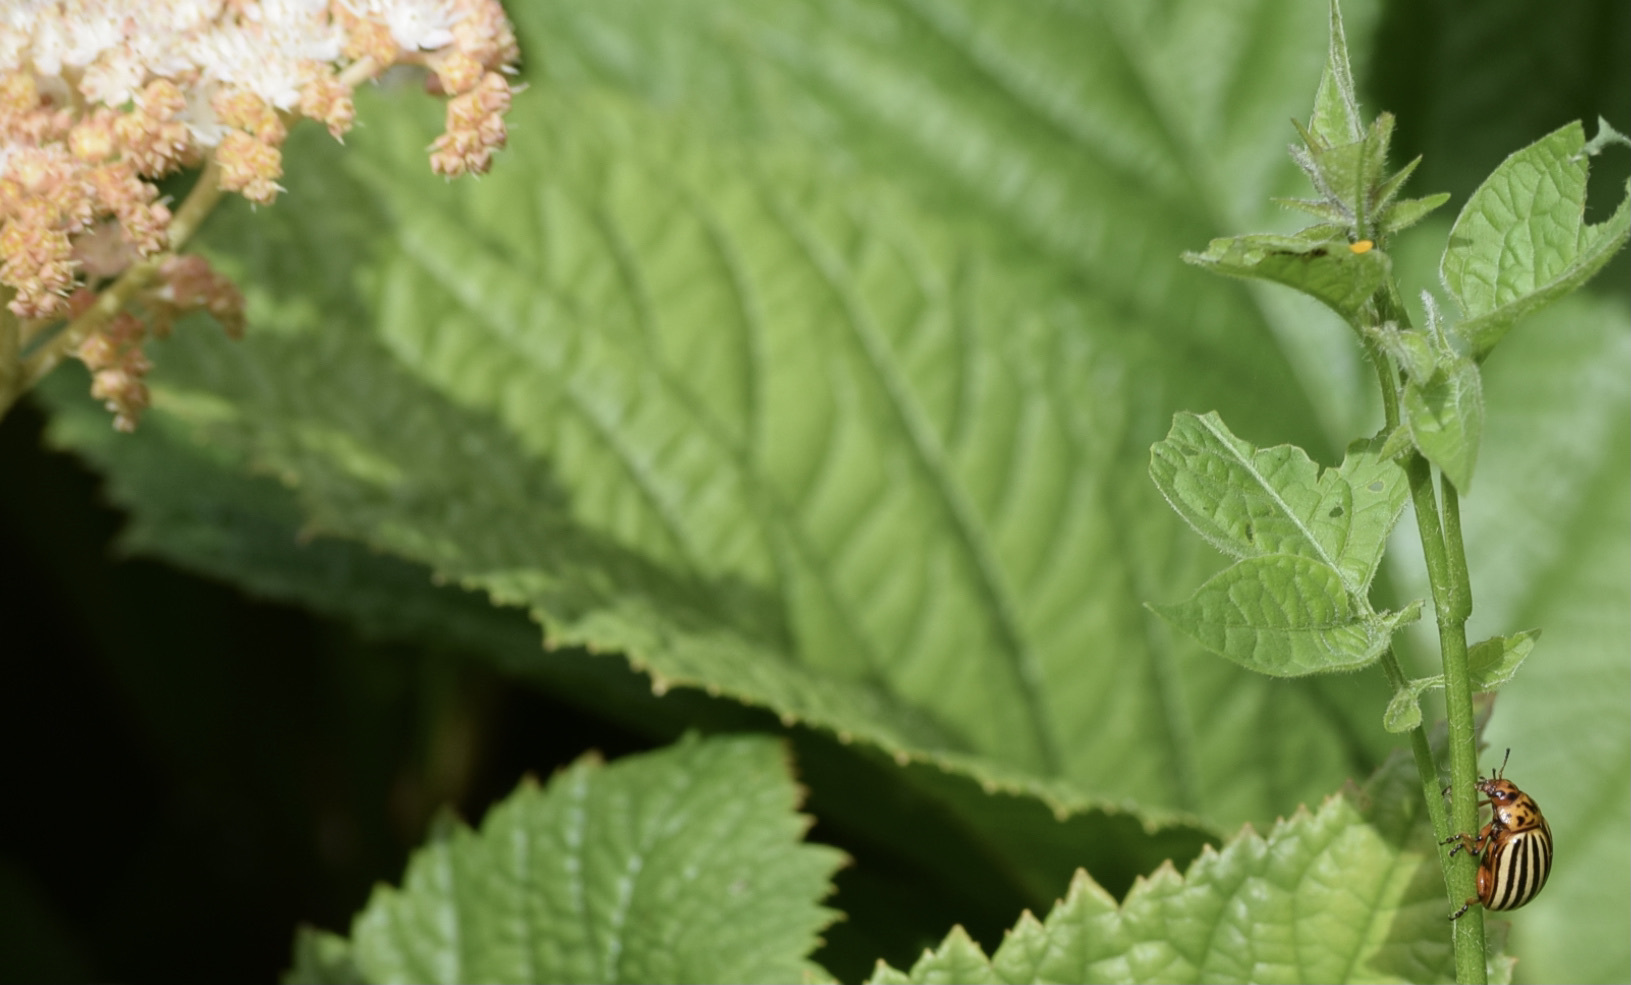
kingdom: Animalia
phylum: Arthropoda
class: Insecta
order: Coleoptera
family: Chrysomelidae
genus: Leptinotarsa
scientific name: Leptinotarsa decemlineata
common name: Colorado potato beetle
